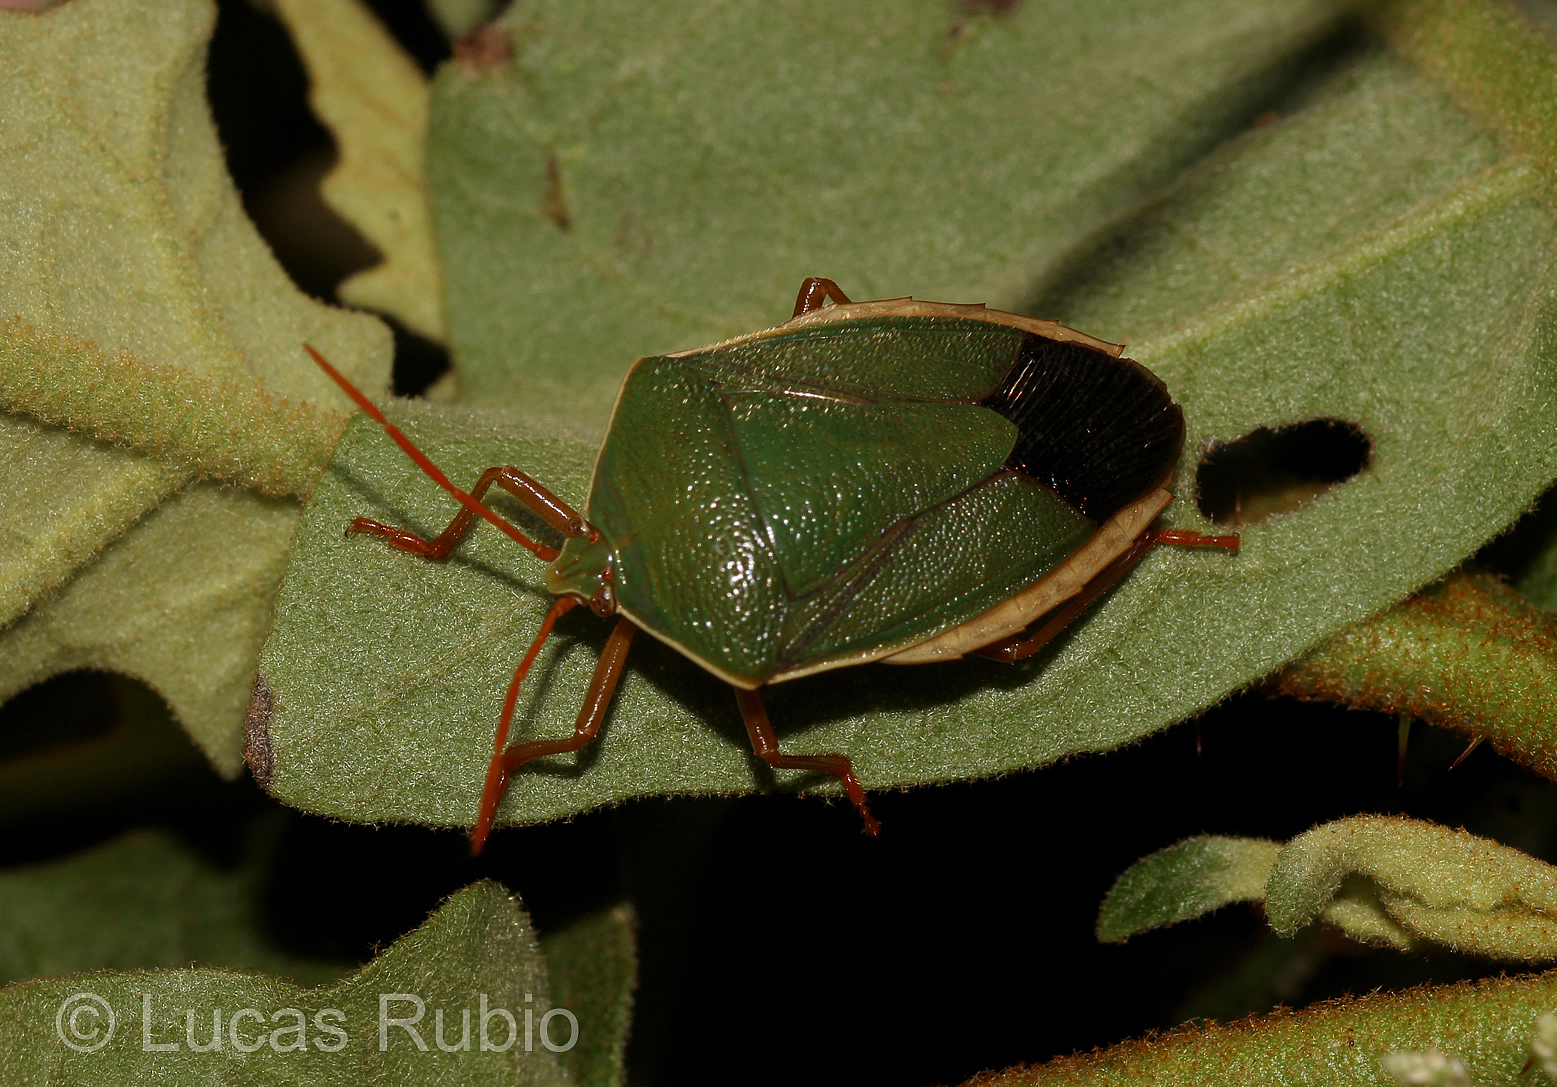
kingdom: Animalia
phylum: Arthropoda
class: Insecta
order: Hemiptera
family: Pentatomidae
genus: Edessa
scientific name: Edessa rufomarginata
